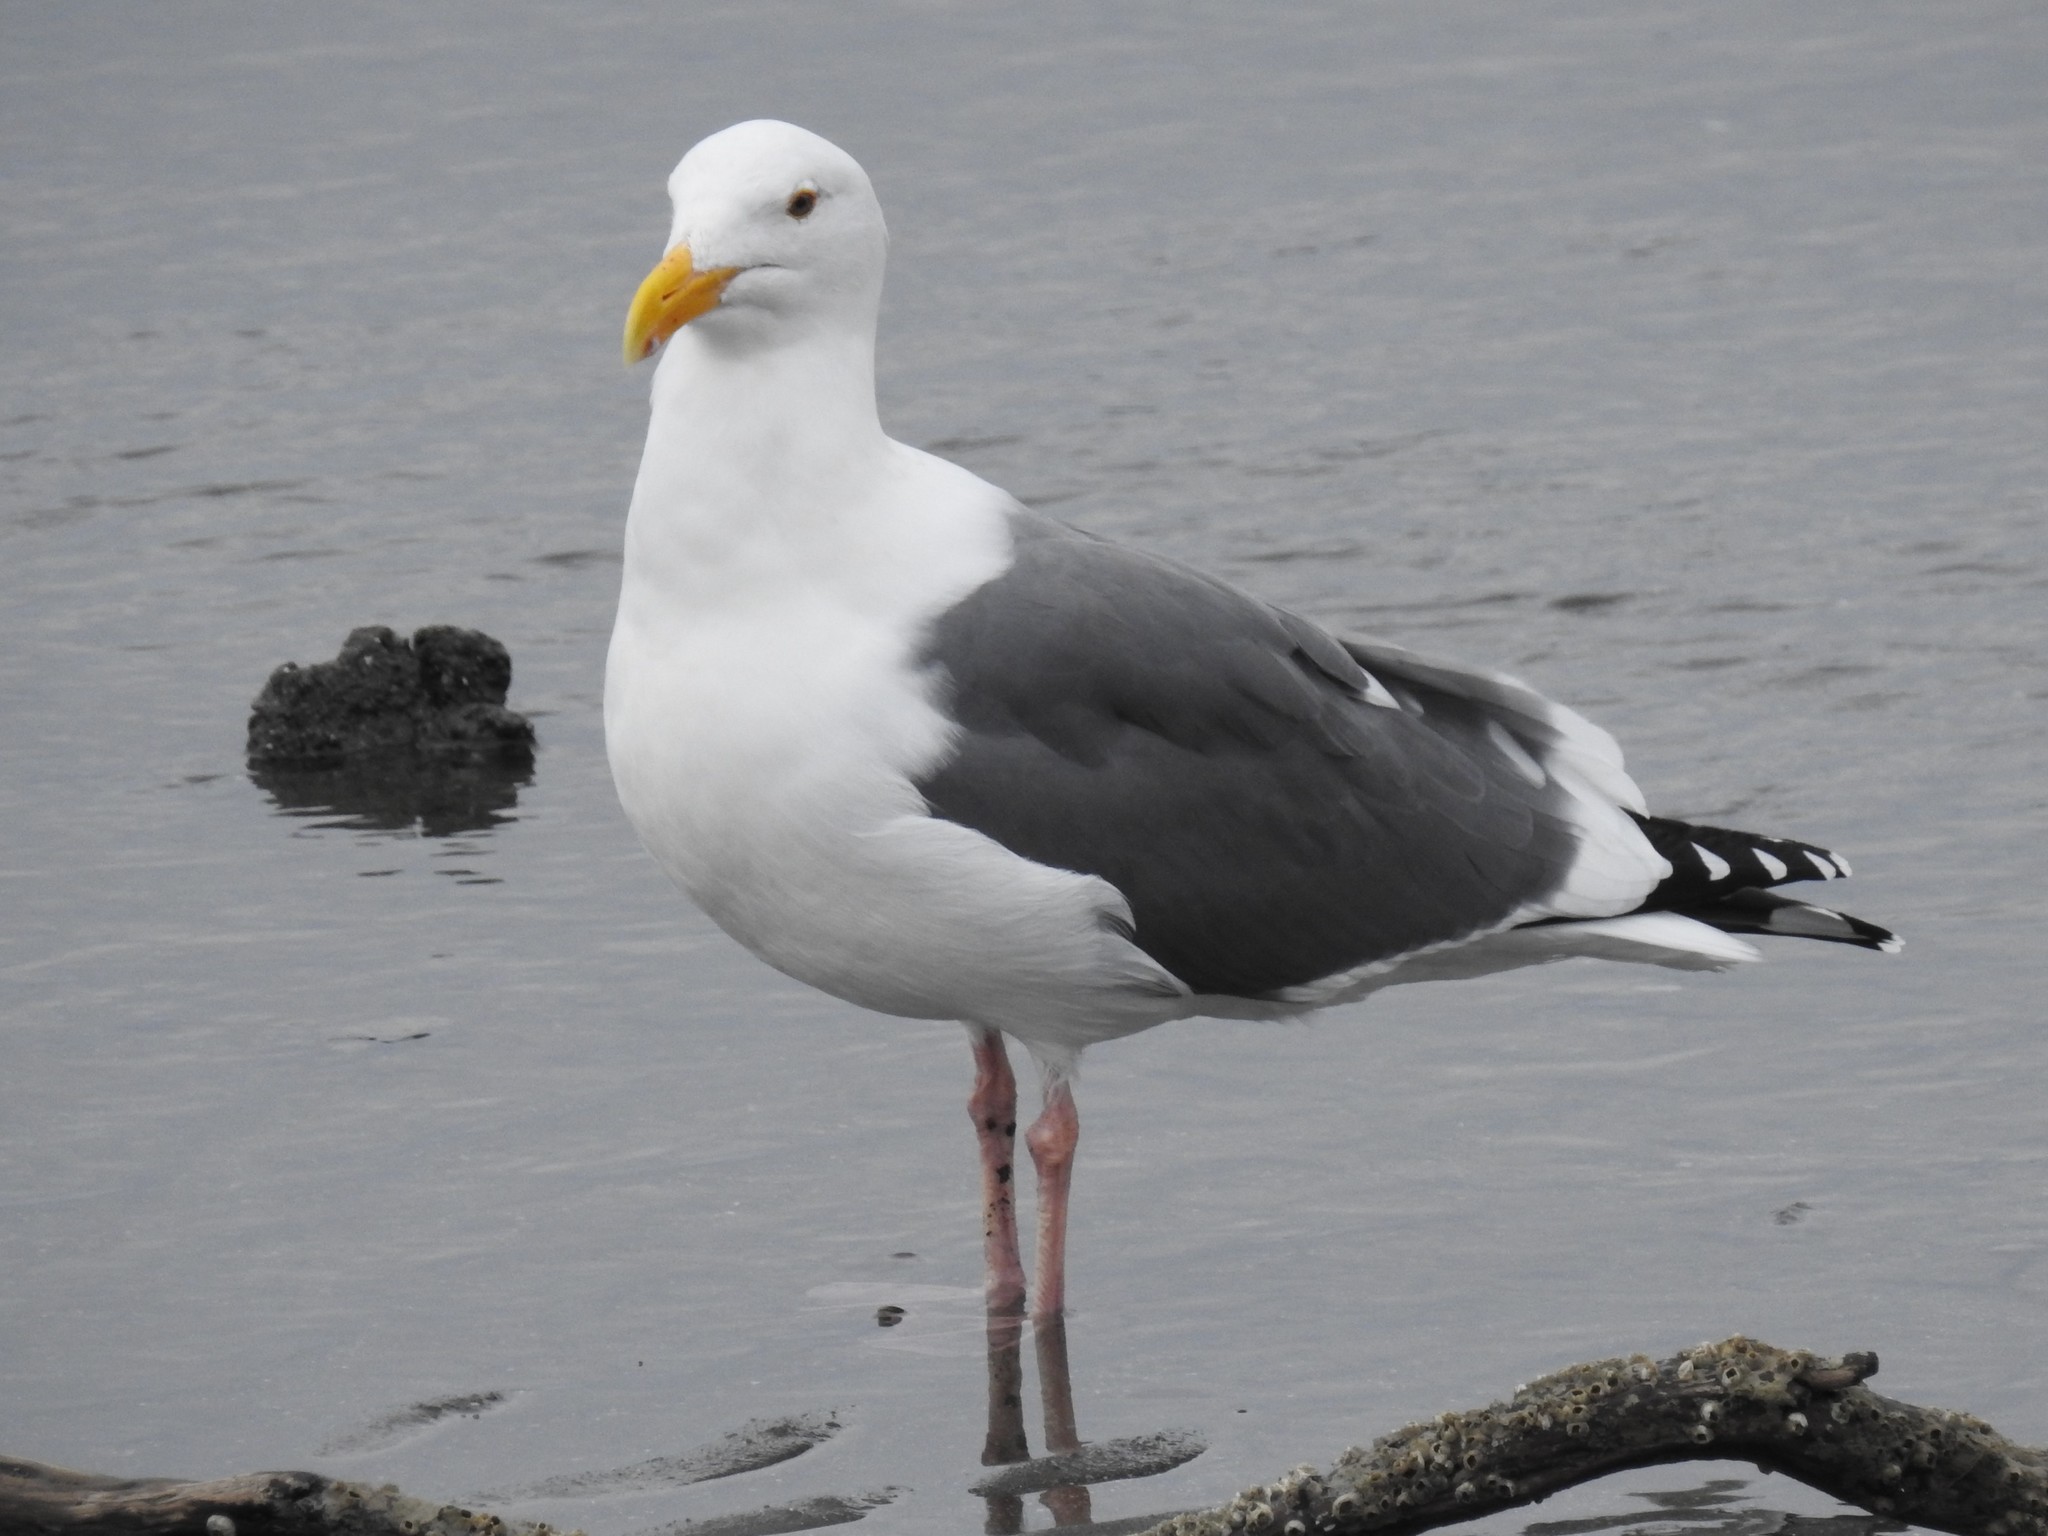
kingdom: Animalia
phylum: Chordata
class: Aves
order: Charadriiformes
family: Laridae
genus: Larus
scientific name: Larus occidentalis
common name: Western gull
